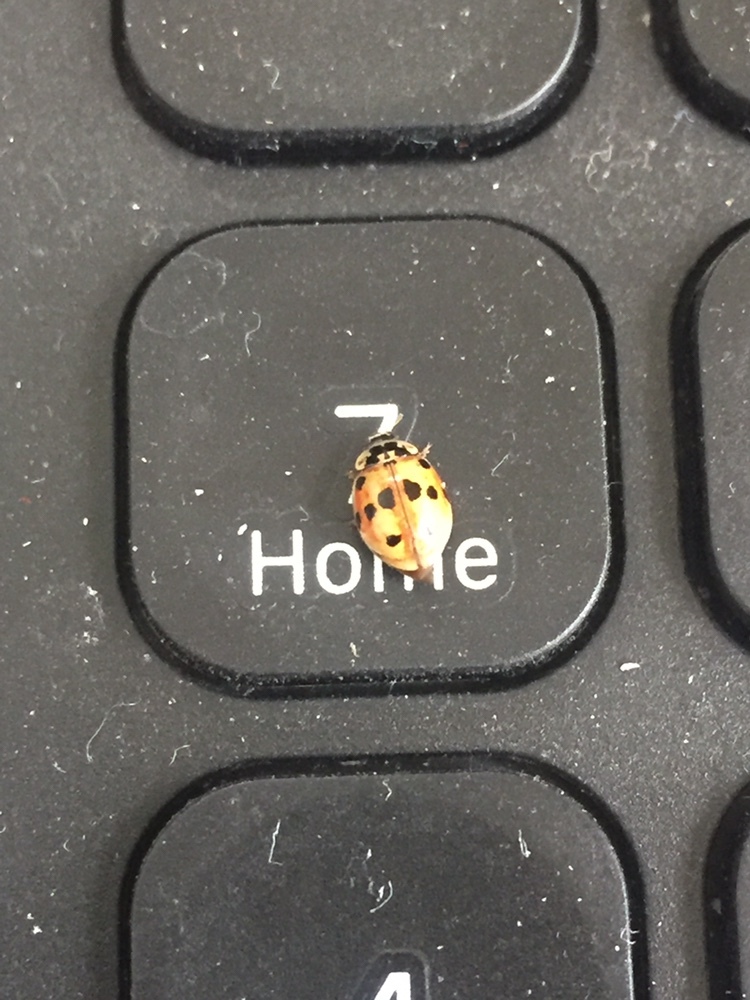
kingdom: Animalia
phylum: Arthropoda
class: Insecta
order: Coleoptera
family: Coccinellidae
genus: Adalia
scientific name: Adalia decempunctata
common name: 10-spot ladybird
